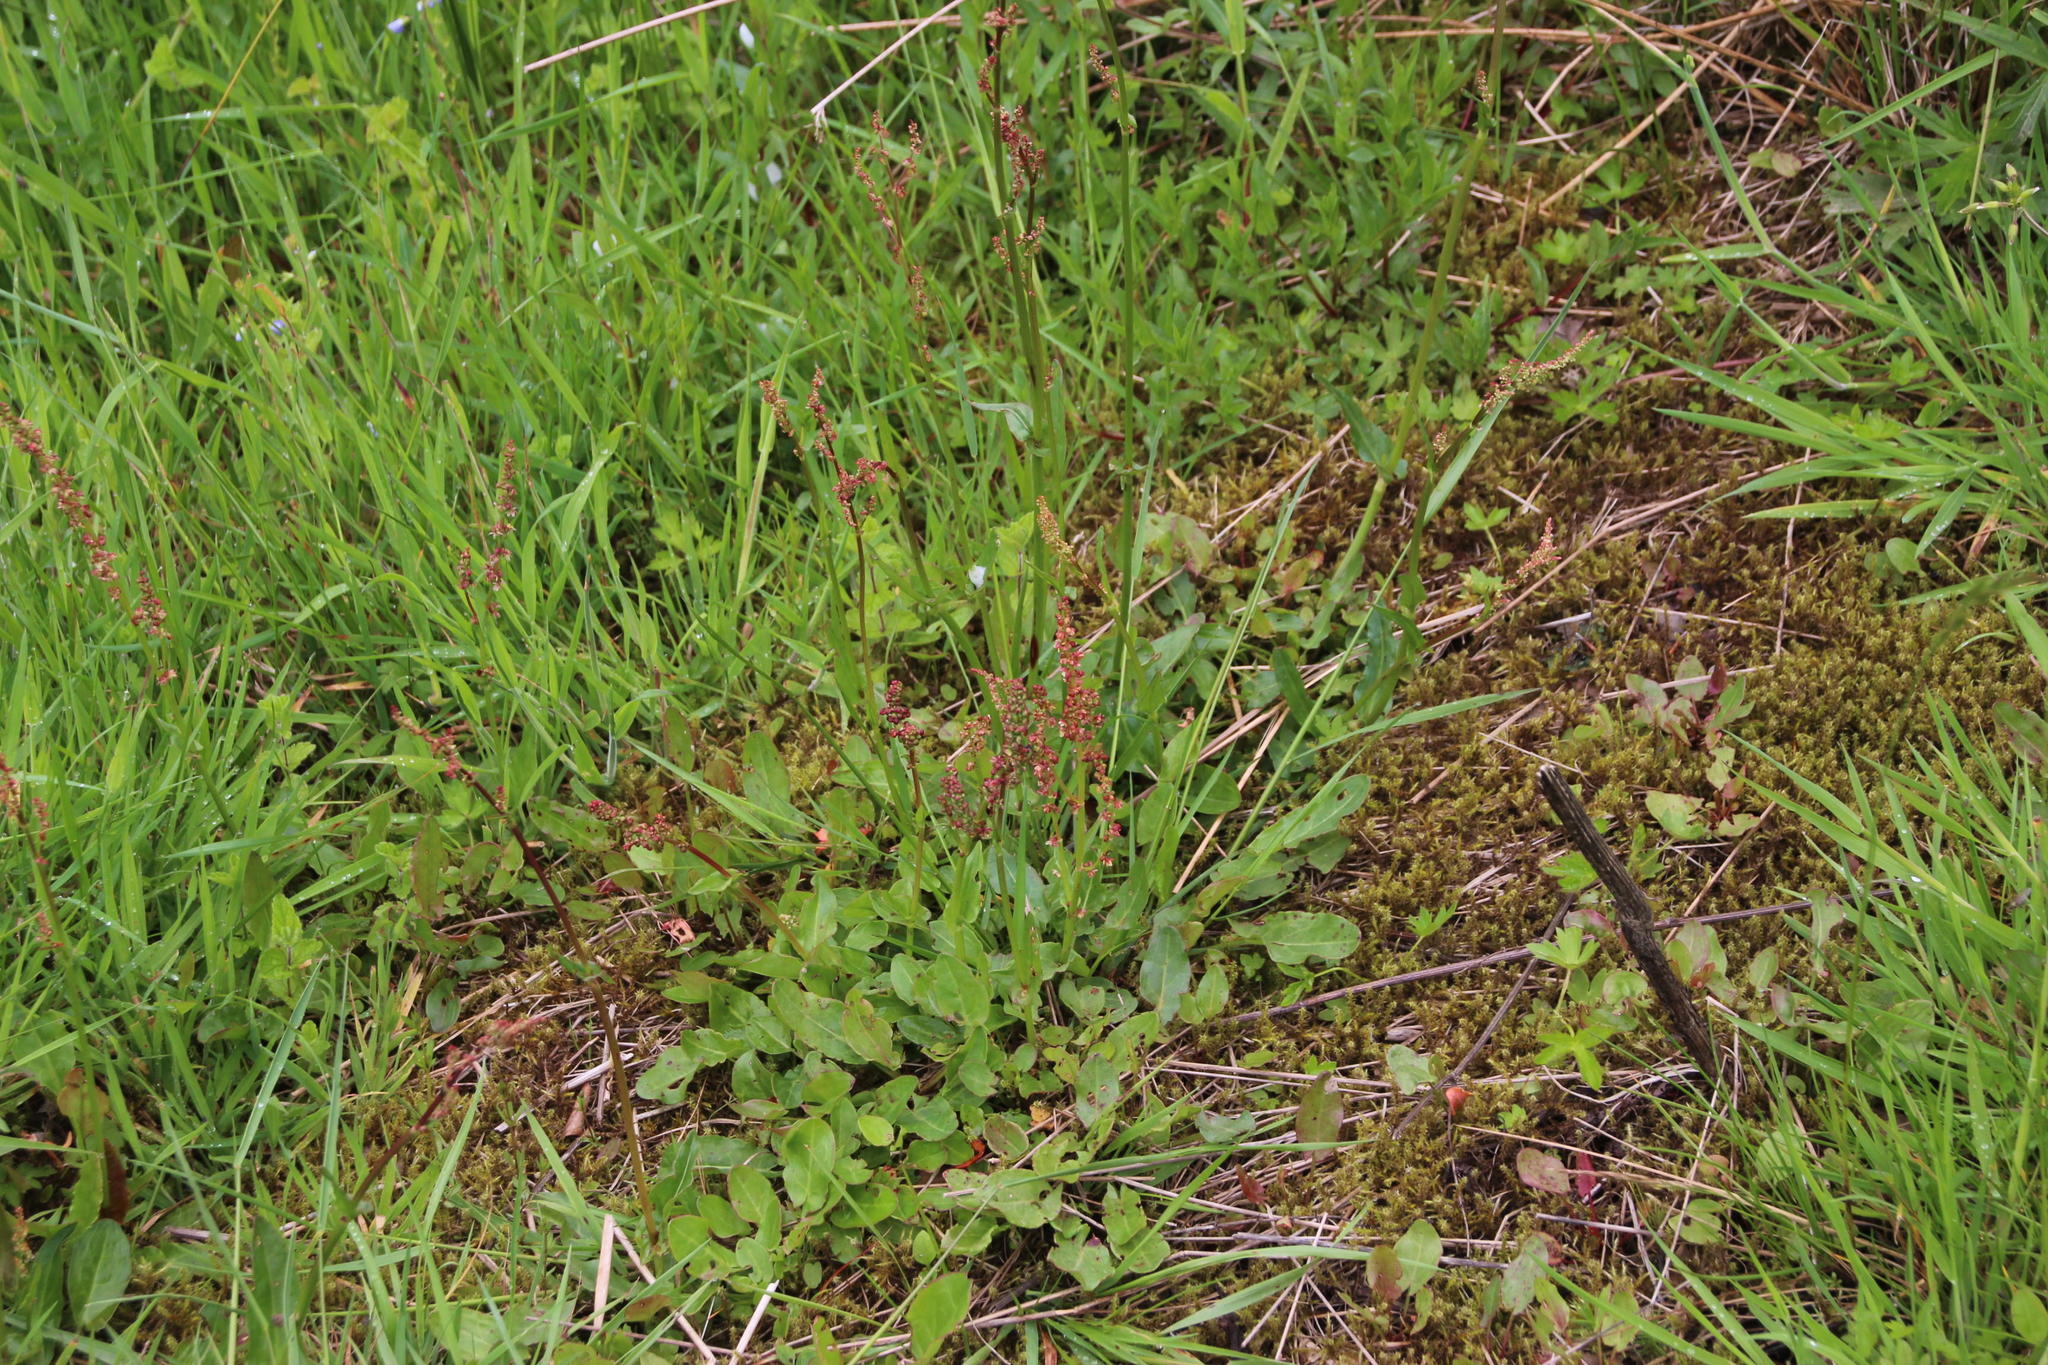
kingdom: Plantae
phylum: Tracheophyta
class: Magnoliopsida
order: Caryophyllales
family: Polygonaceae
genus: Rumex
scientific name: Rumex acetosella
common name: Common sheep sorrel
